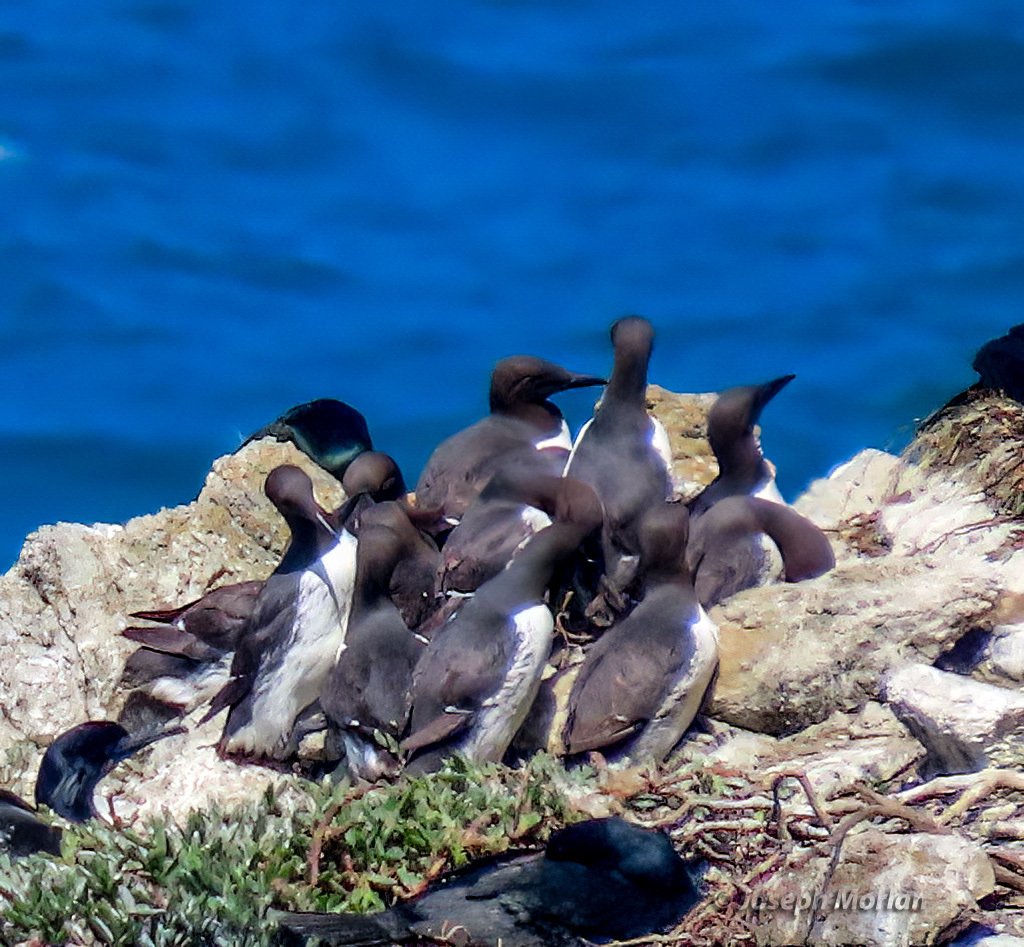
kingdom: Animalia
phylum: Chordata
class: Aves
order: Charadriiformes
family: Alcidae
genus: Uria
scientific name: Uria aalge
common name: Common murre
